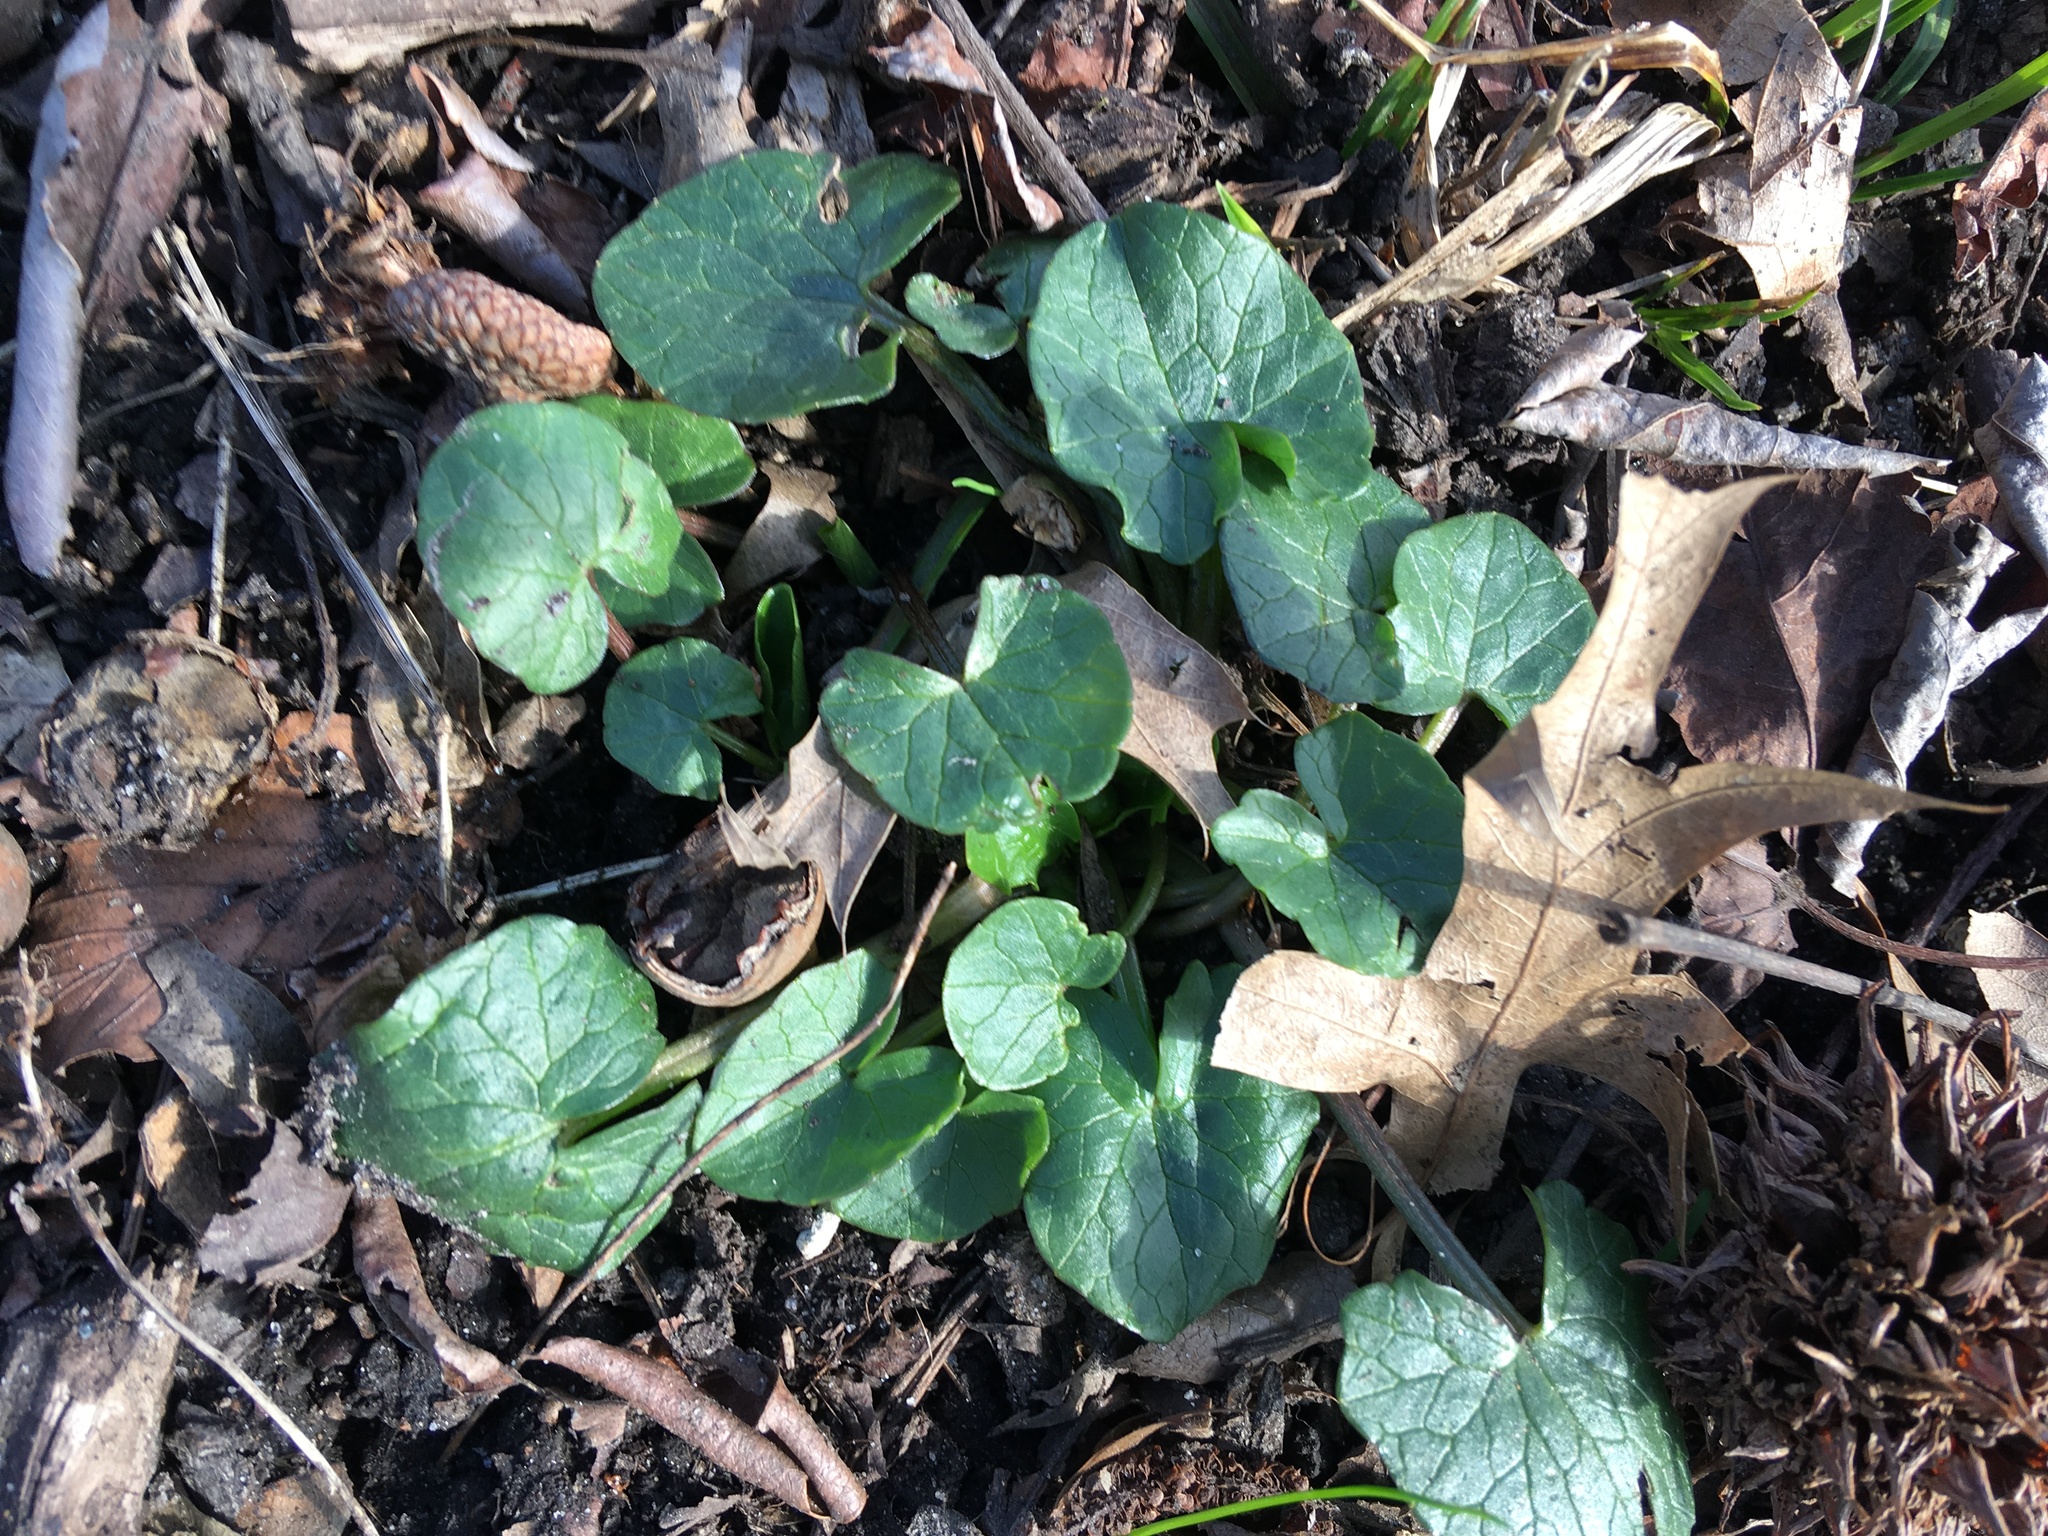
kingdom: Plantae
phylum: Tracheophyta
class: Magnoliopsida
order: Ranunculales
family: Ranunculaceae
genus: Ficaria
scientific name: Ficaria verna
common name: Lesser celandine
